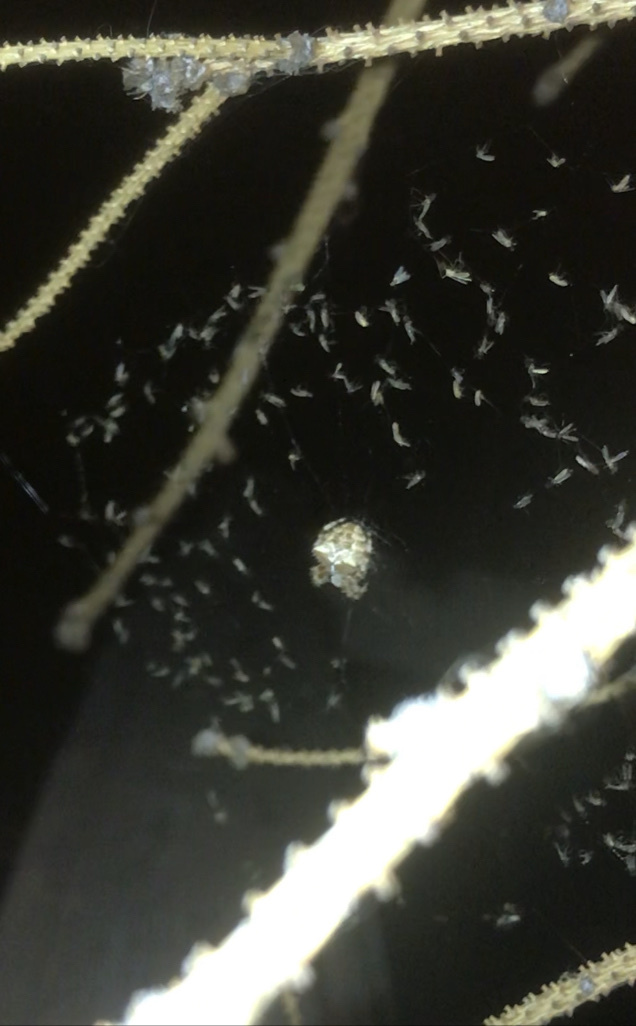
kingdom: Animalia
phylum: Arthropoda
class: Arachnida
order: Araneae
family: Araneidae
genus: Araneus
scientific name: Araneus gemmoides
